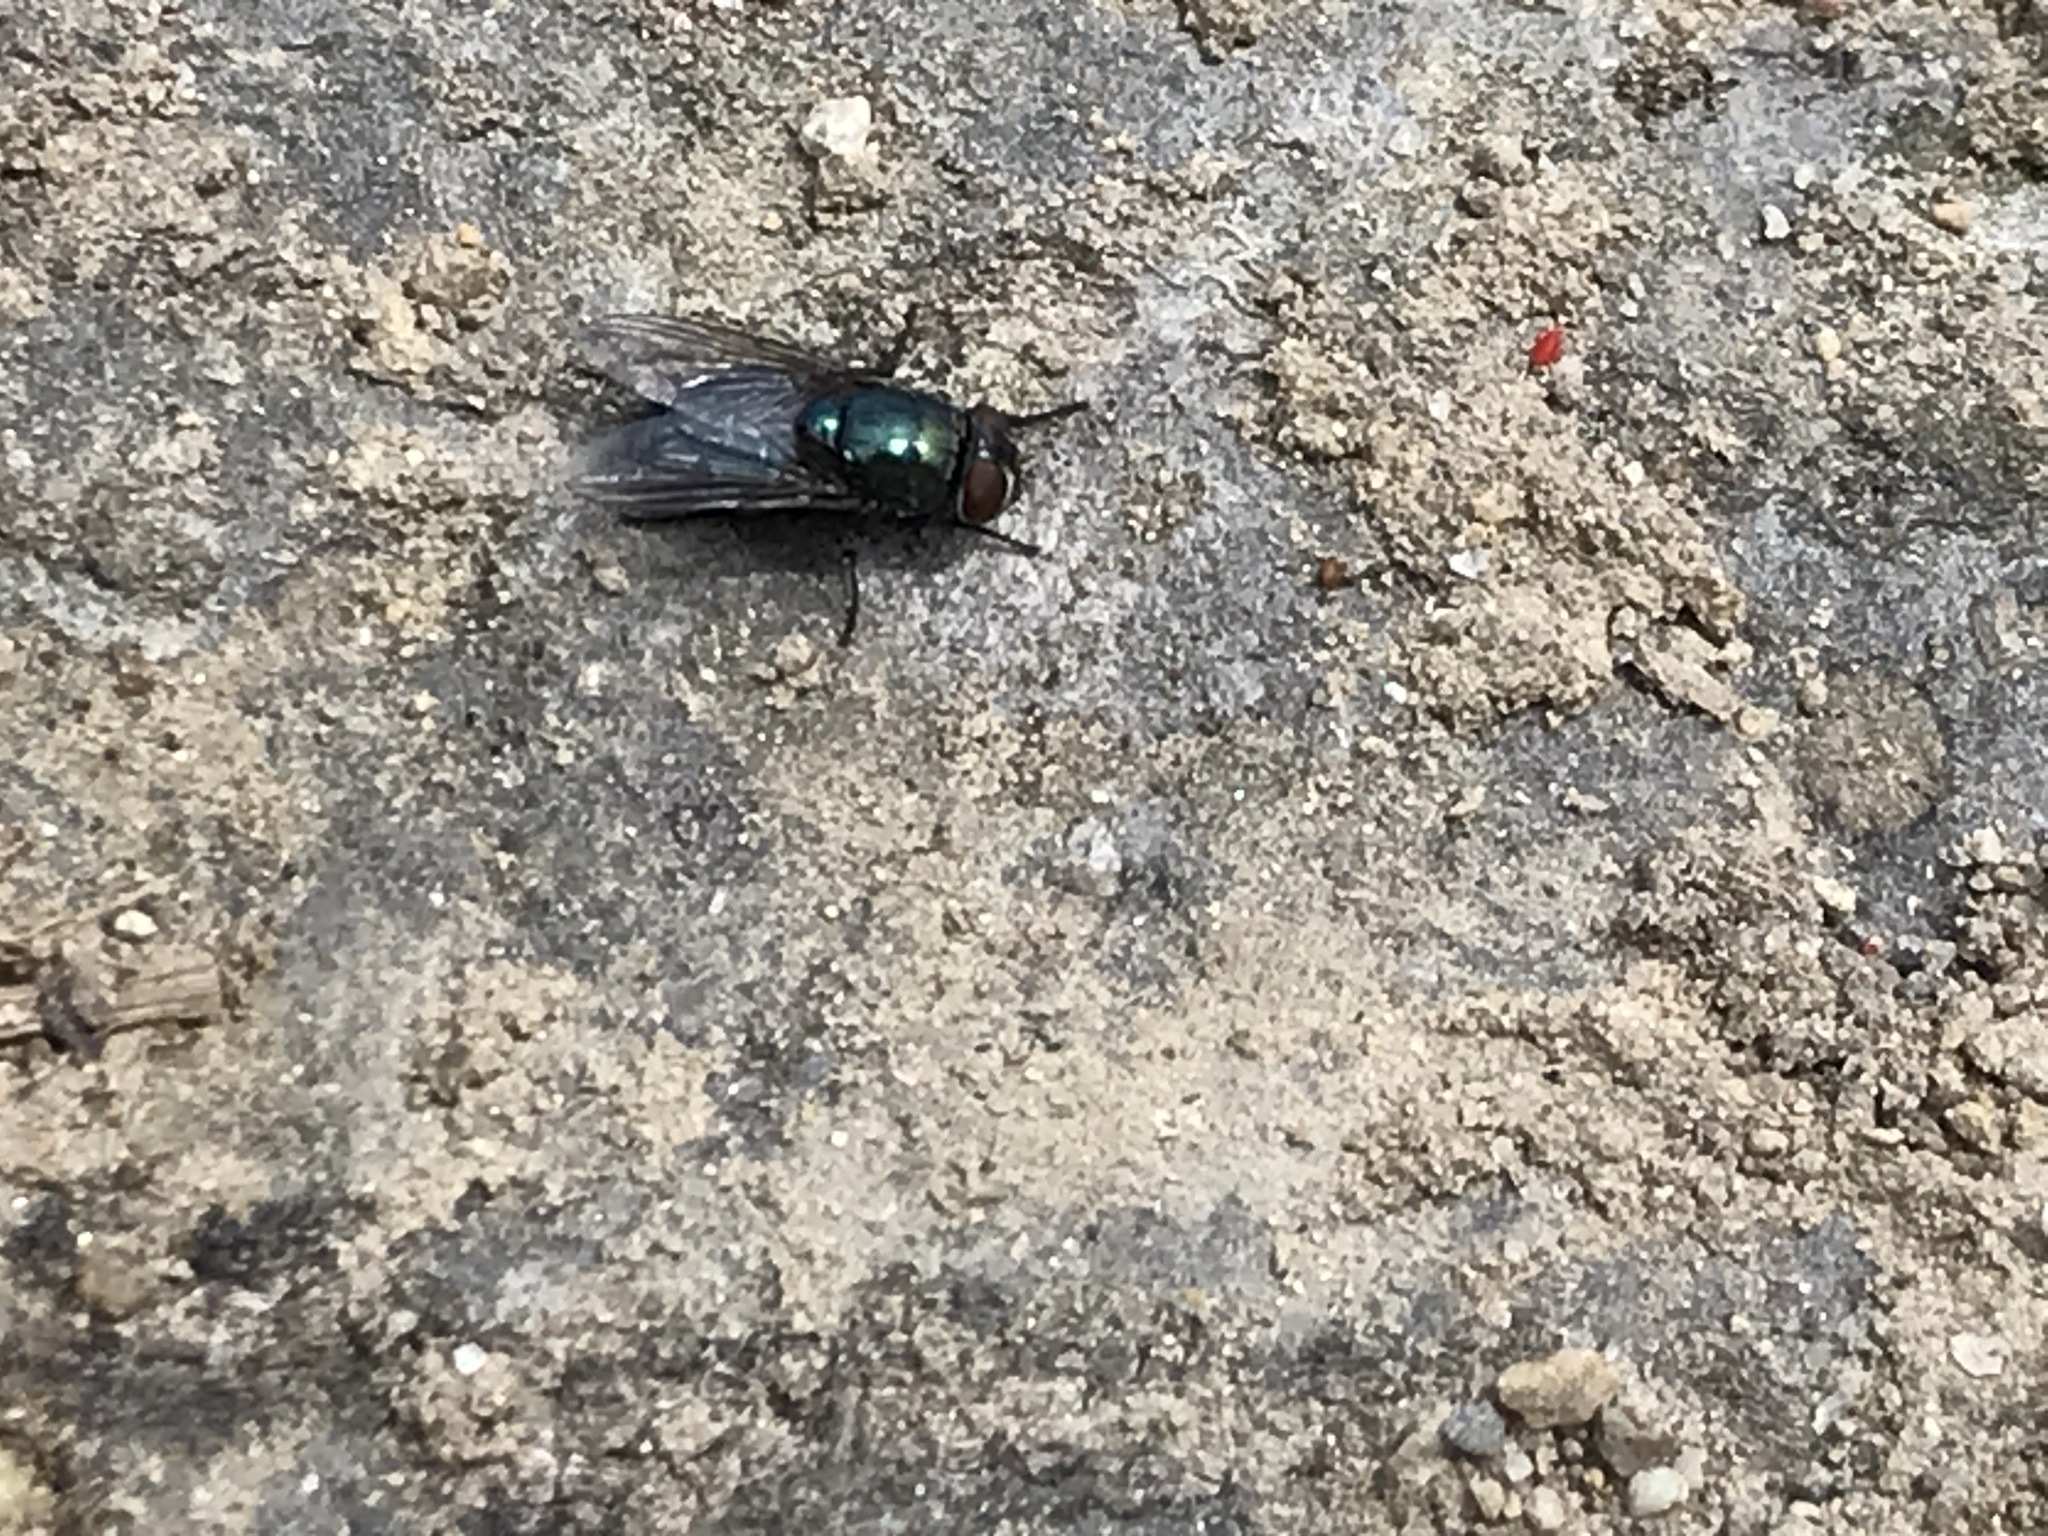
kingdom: Animalia
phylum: Arthropoda
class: Insecta
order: Diptera
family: Calliphoridae
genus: Phormia
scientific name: Phormia regina
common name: Black blow fly
